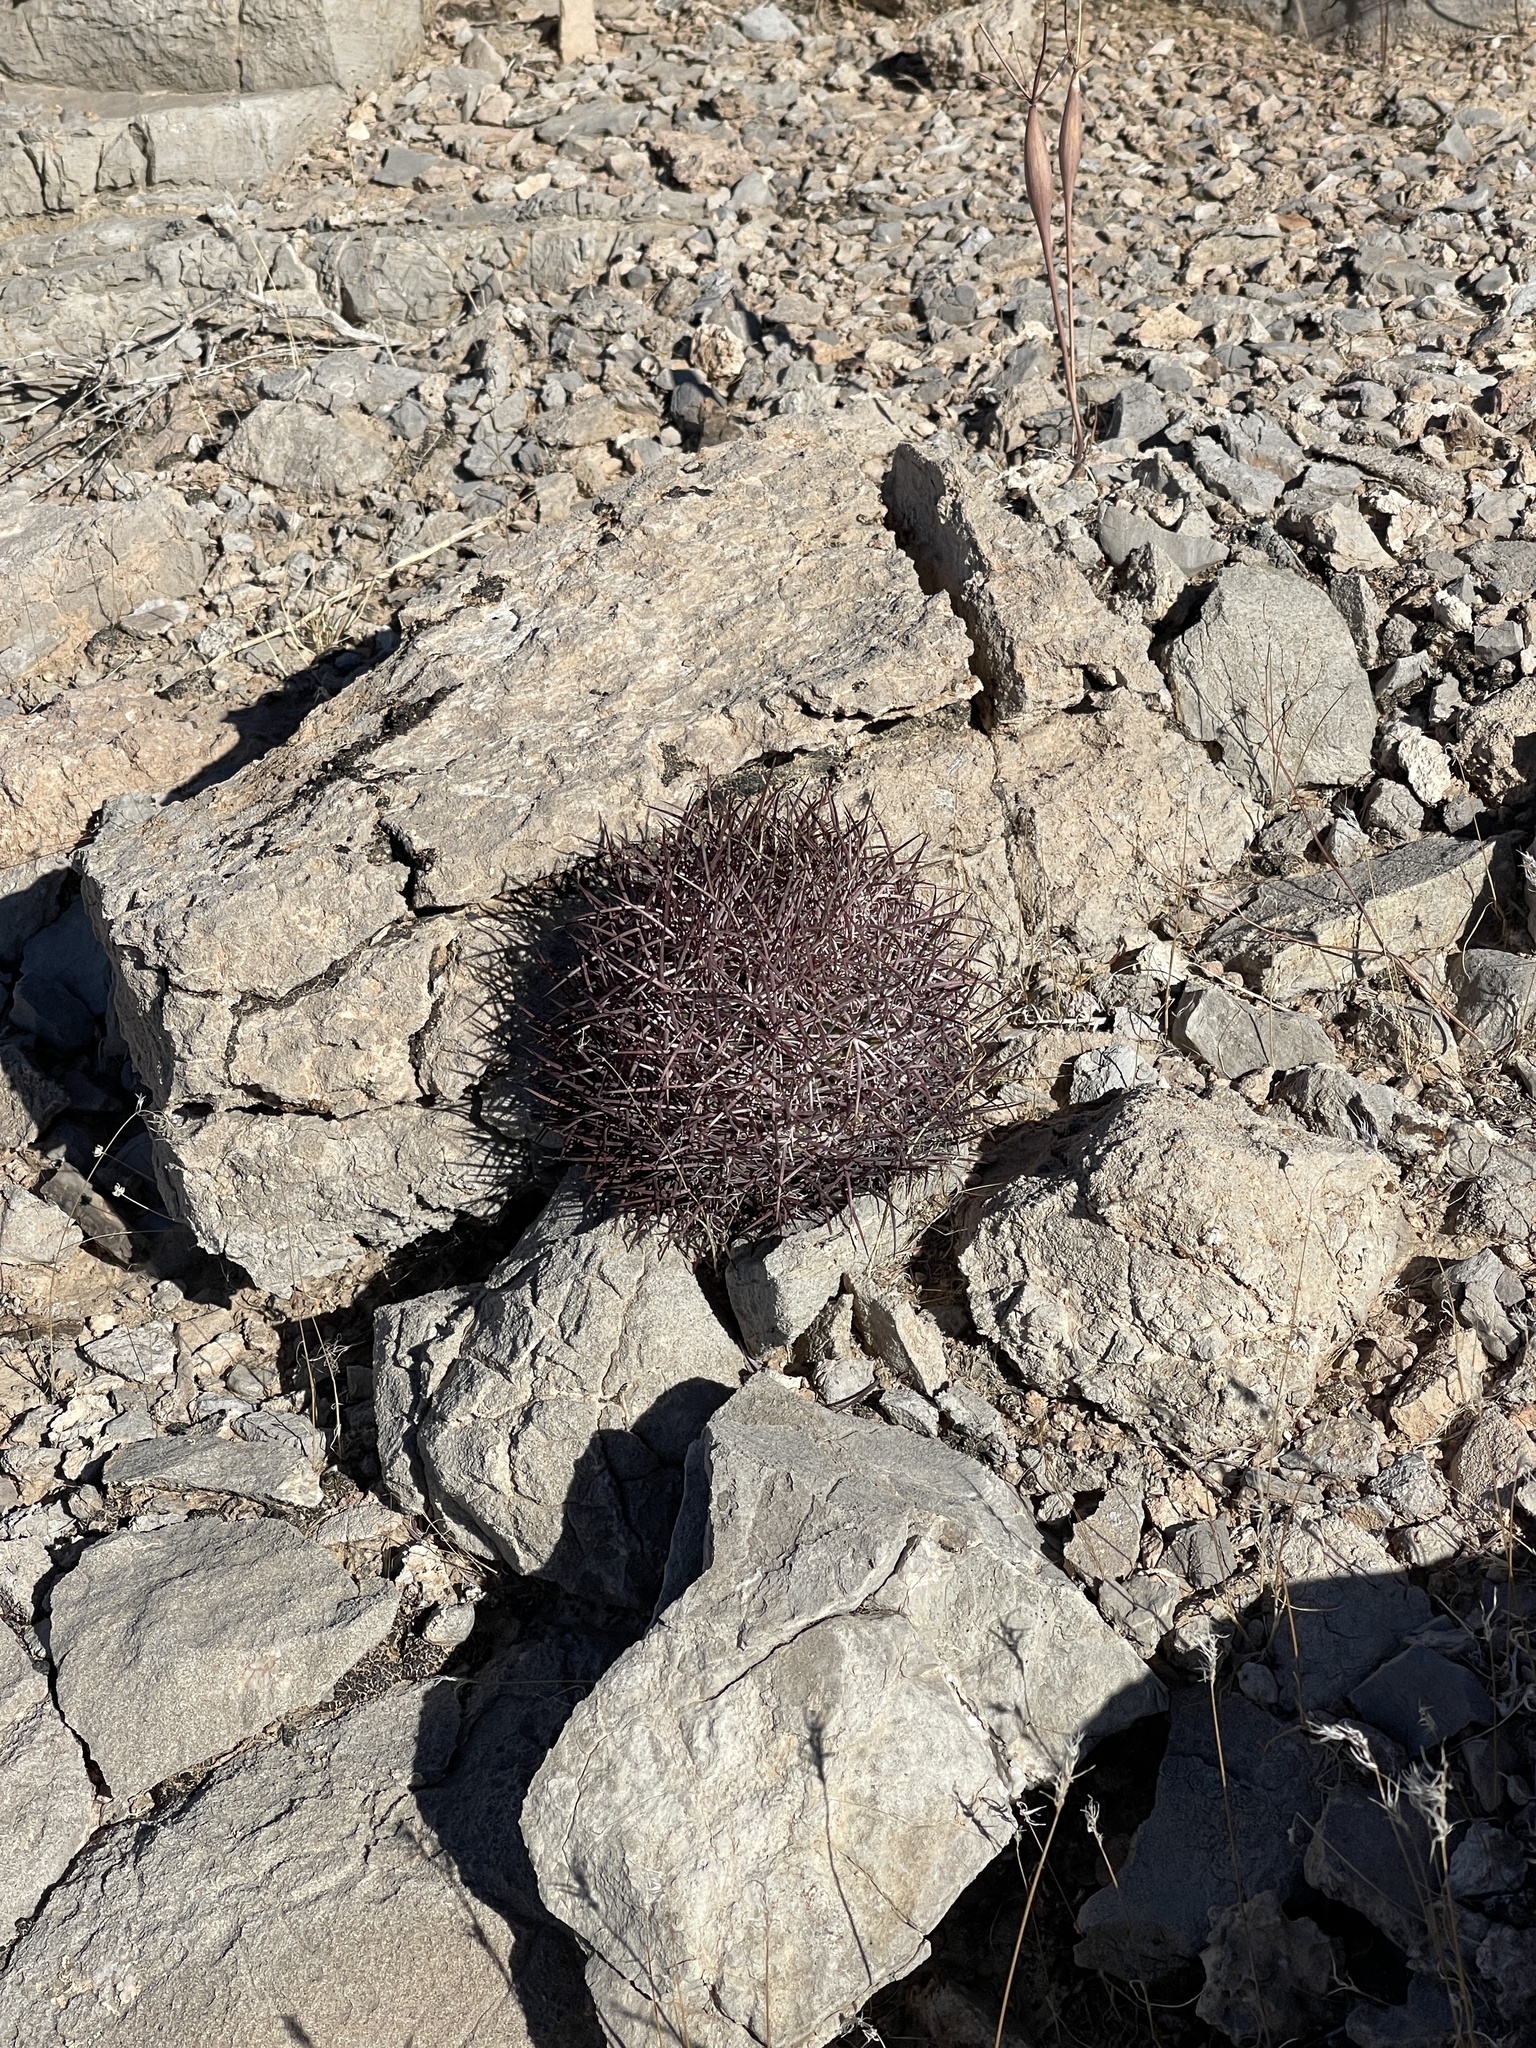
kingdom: Plantae
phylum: Tracheophyta
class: Magnoliopsida
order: Caryophyllales
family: Cactaceae
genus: Sclerocactus
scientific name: Sclerocactus johnsonii
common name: Eight-spine fishhook cactus
